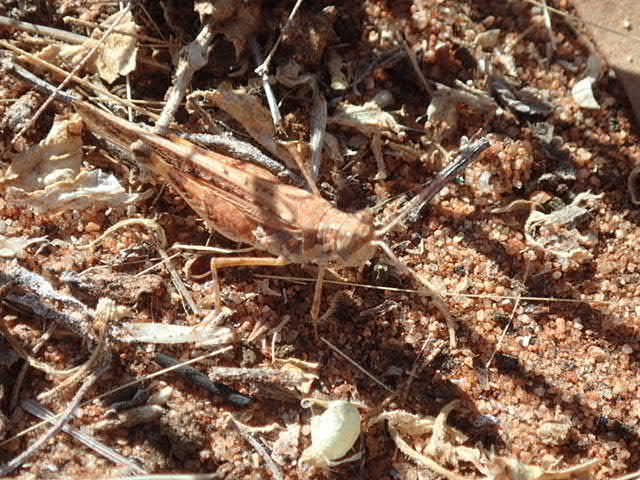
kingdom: Animalia
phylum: Arthropoda
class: Insecta
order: Orthoptera
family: Acrididae
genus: Urnisa
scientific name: Urnisa guttulosa
